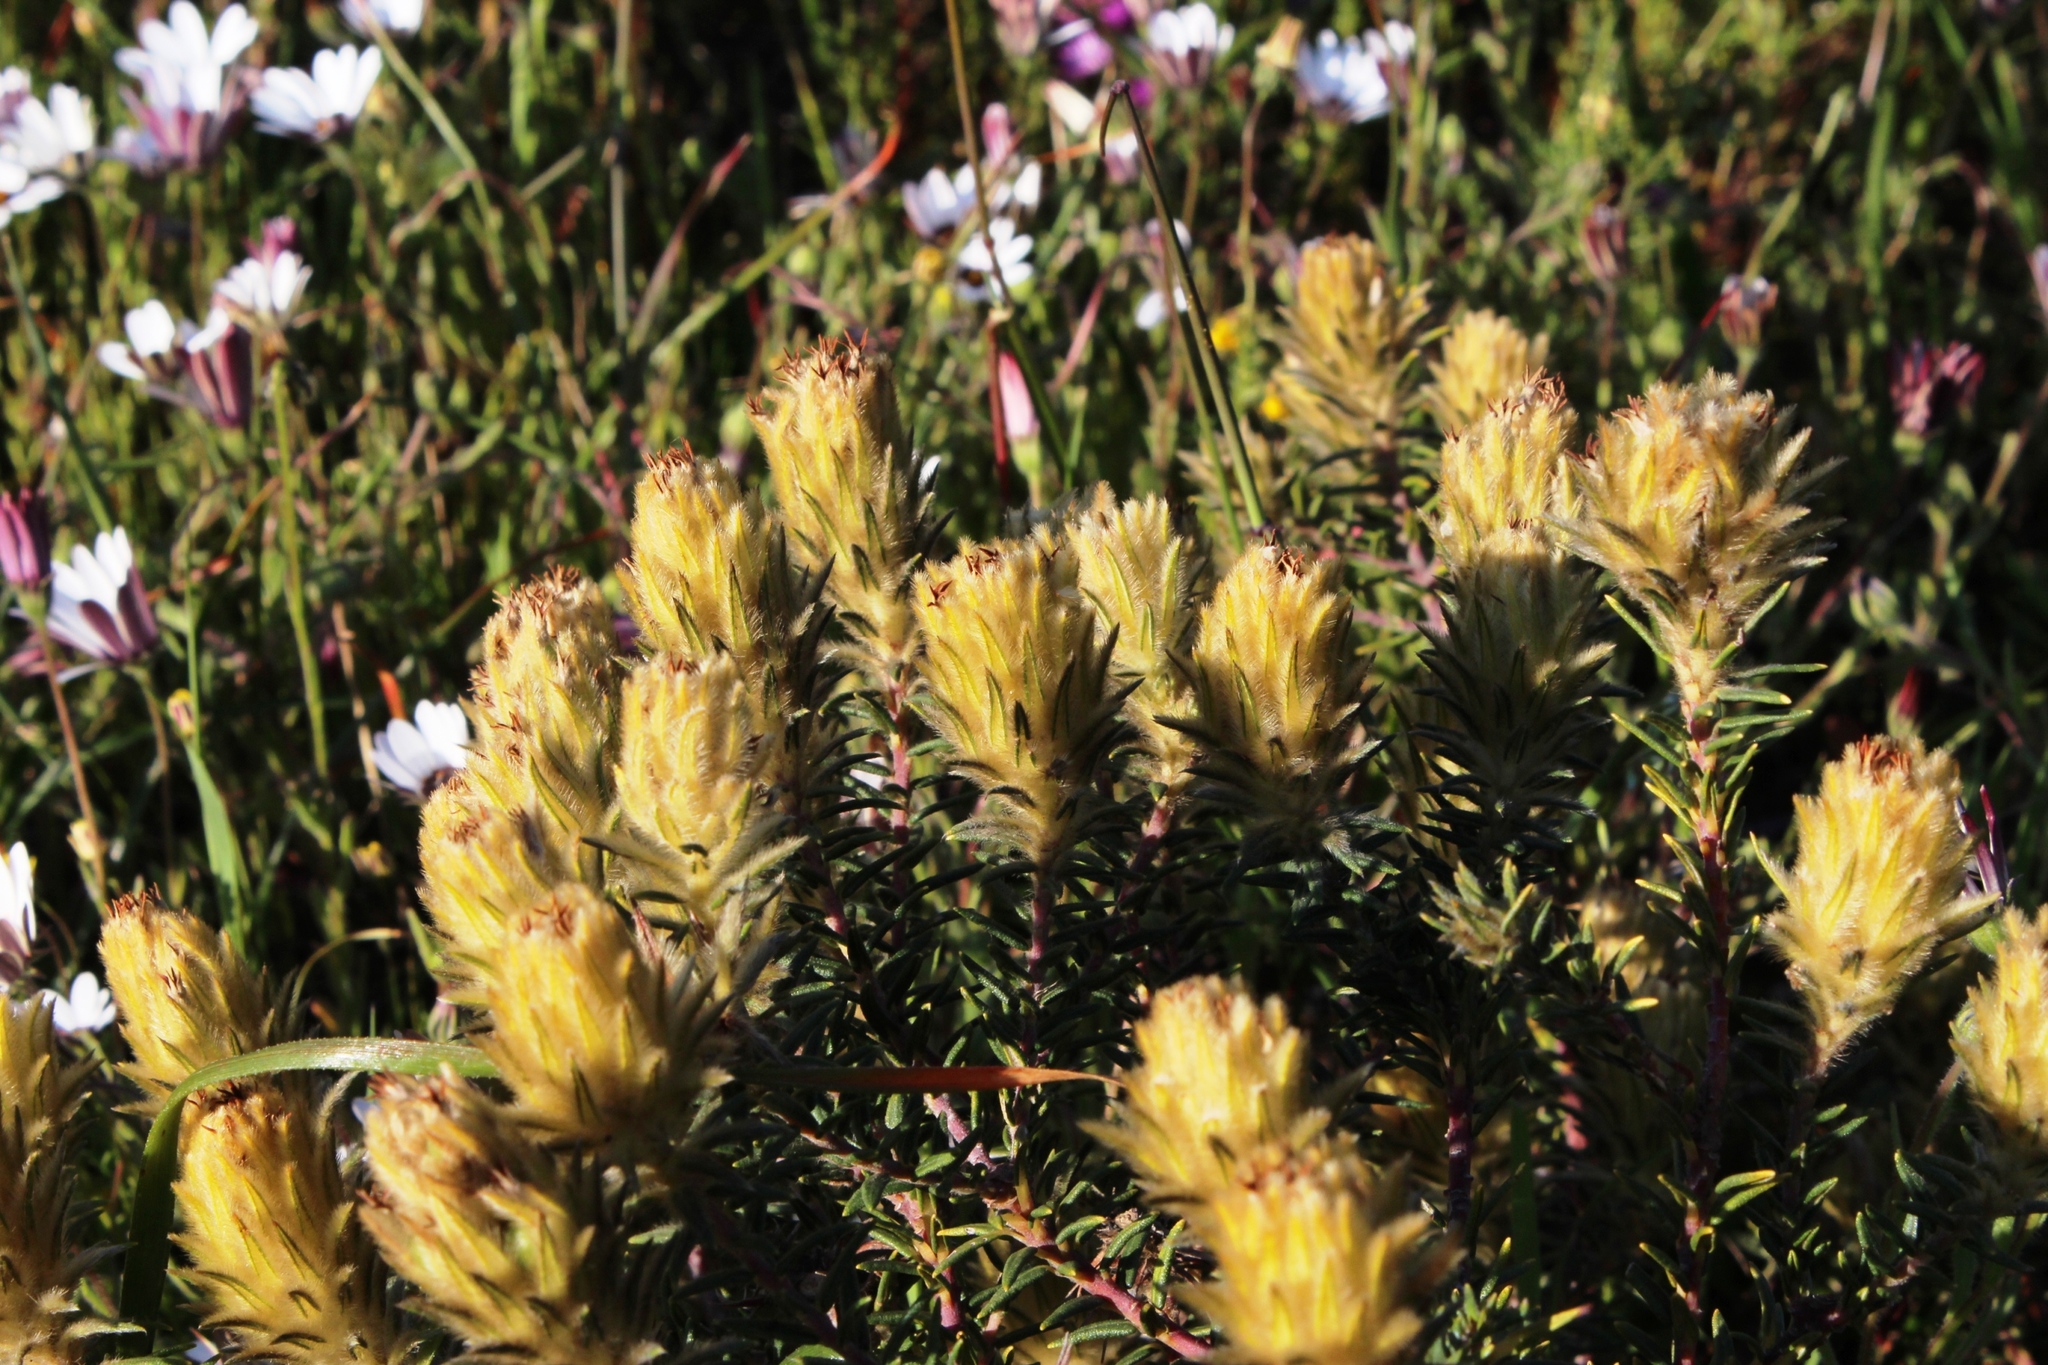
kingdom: Plantae
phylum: Tracheophyta
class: Magnoliopsida
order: Rosales
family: Rhamnaceae
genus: Phylica
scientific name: Phylica plumosa
